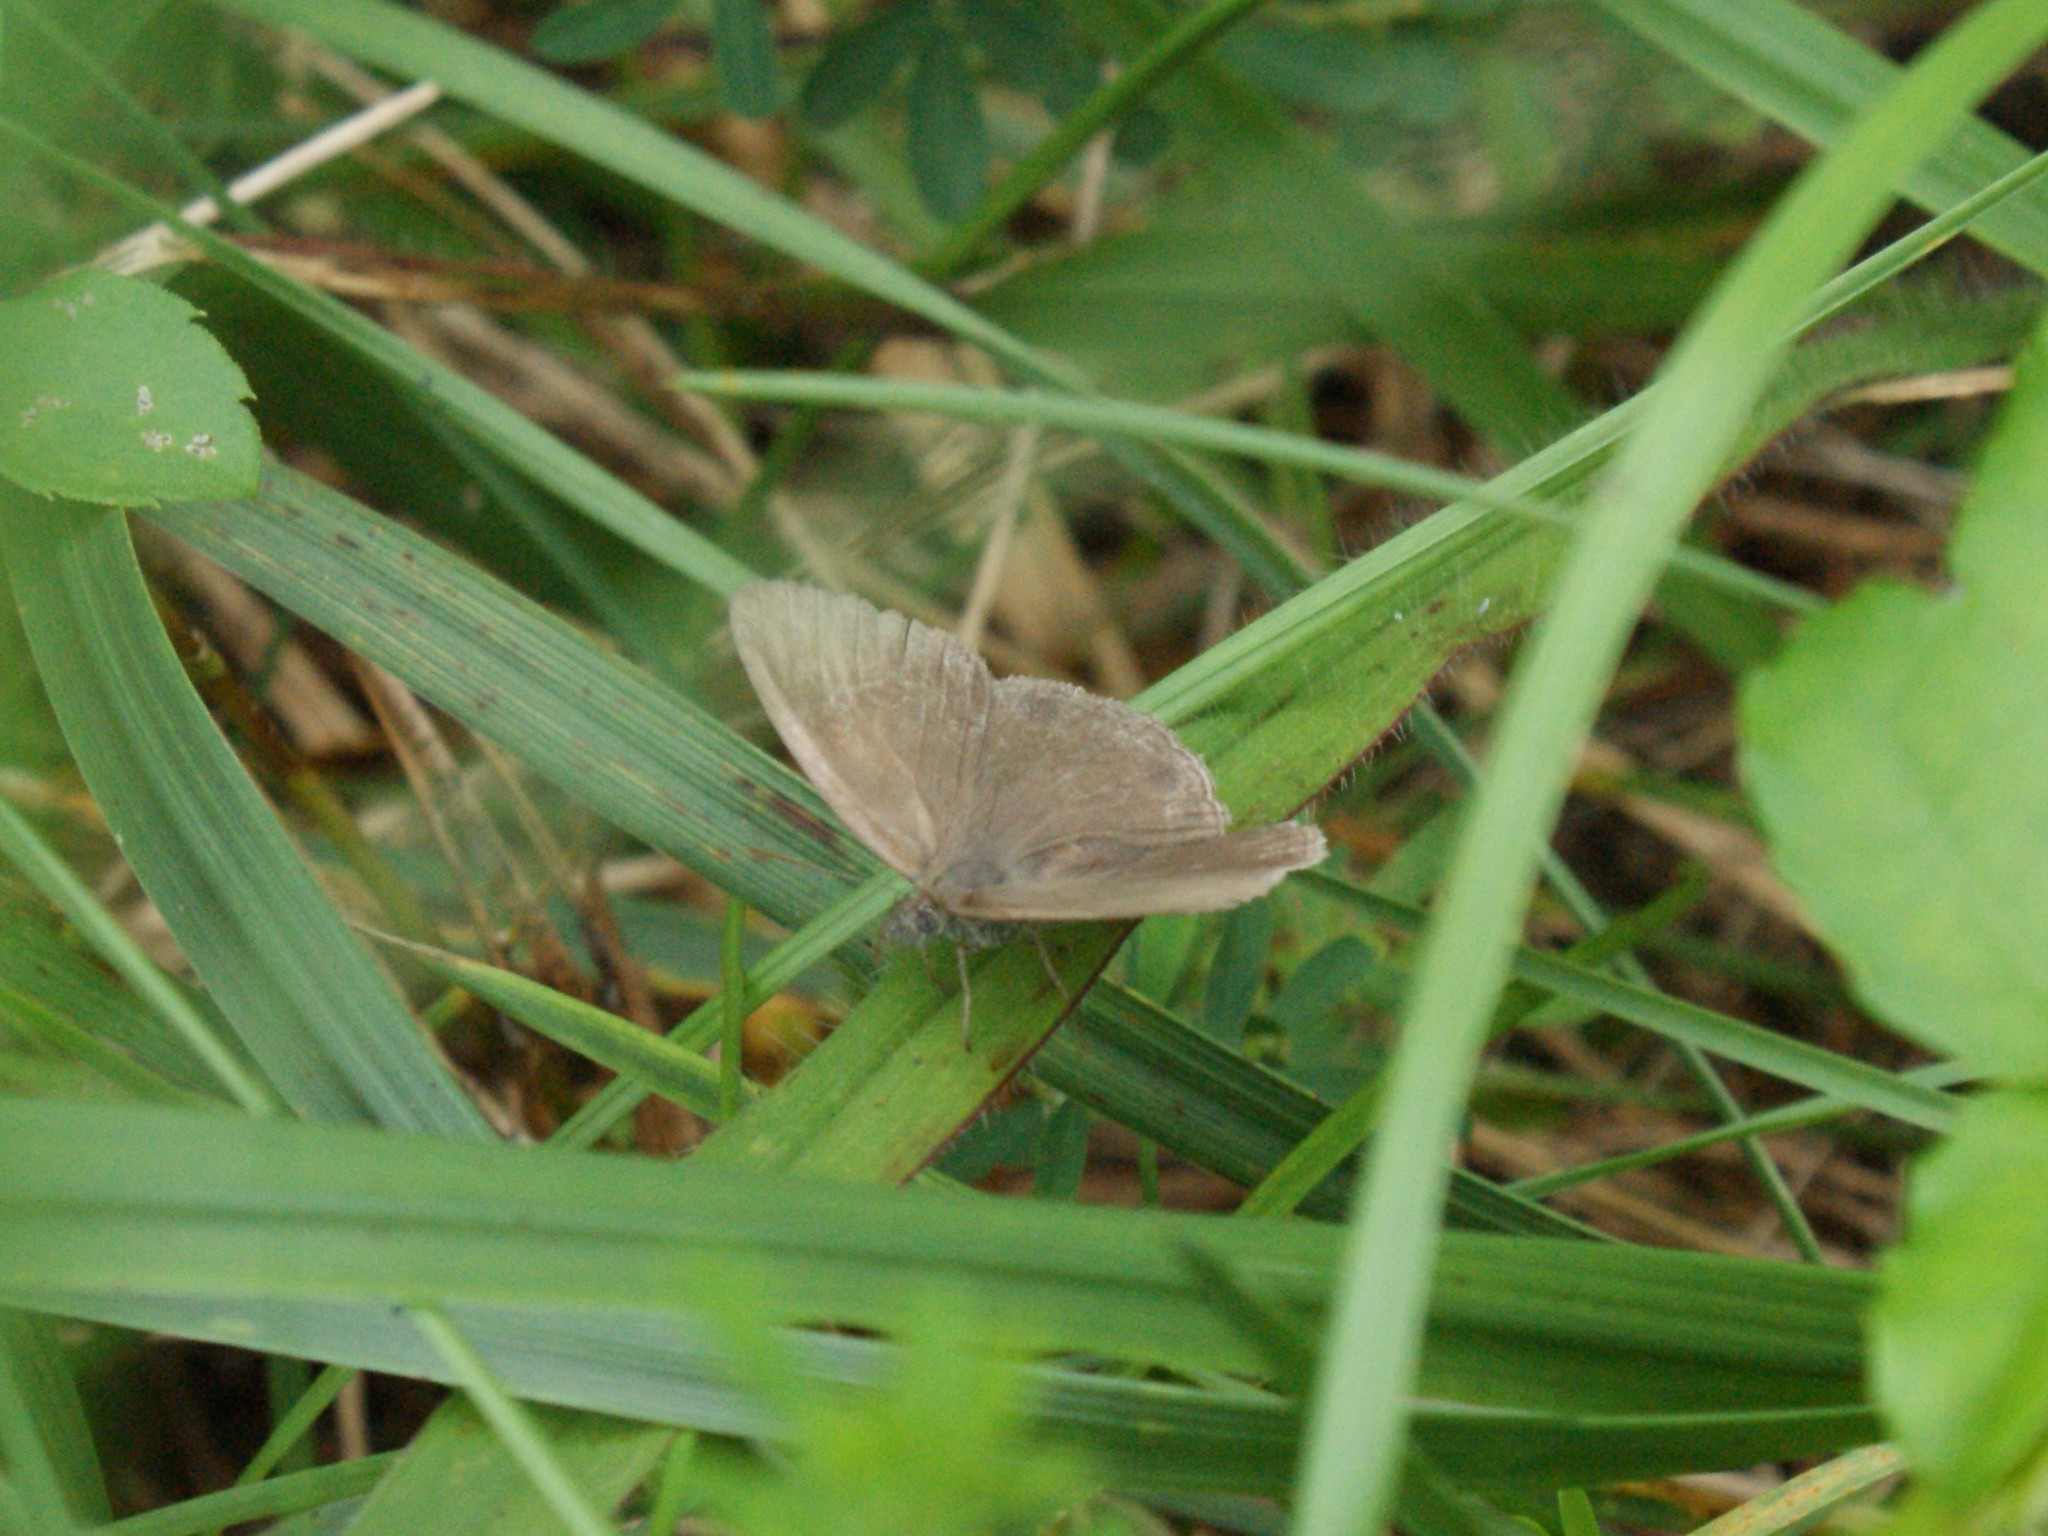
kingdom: Animalia
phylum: Arthropoda
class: Insecta
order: Lepidoptera
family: Nymphalidae
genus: Hermeuptychia
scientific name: Hermeuptychia hermes
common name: Hermes satyr
